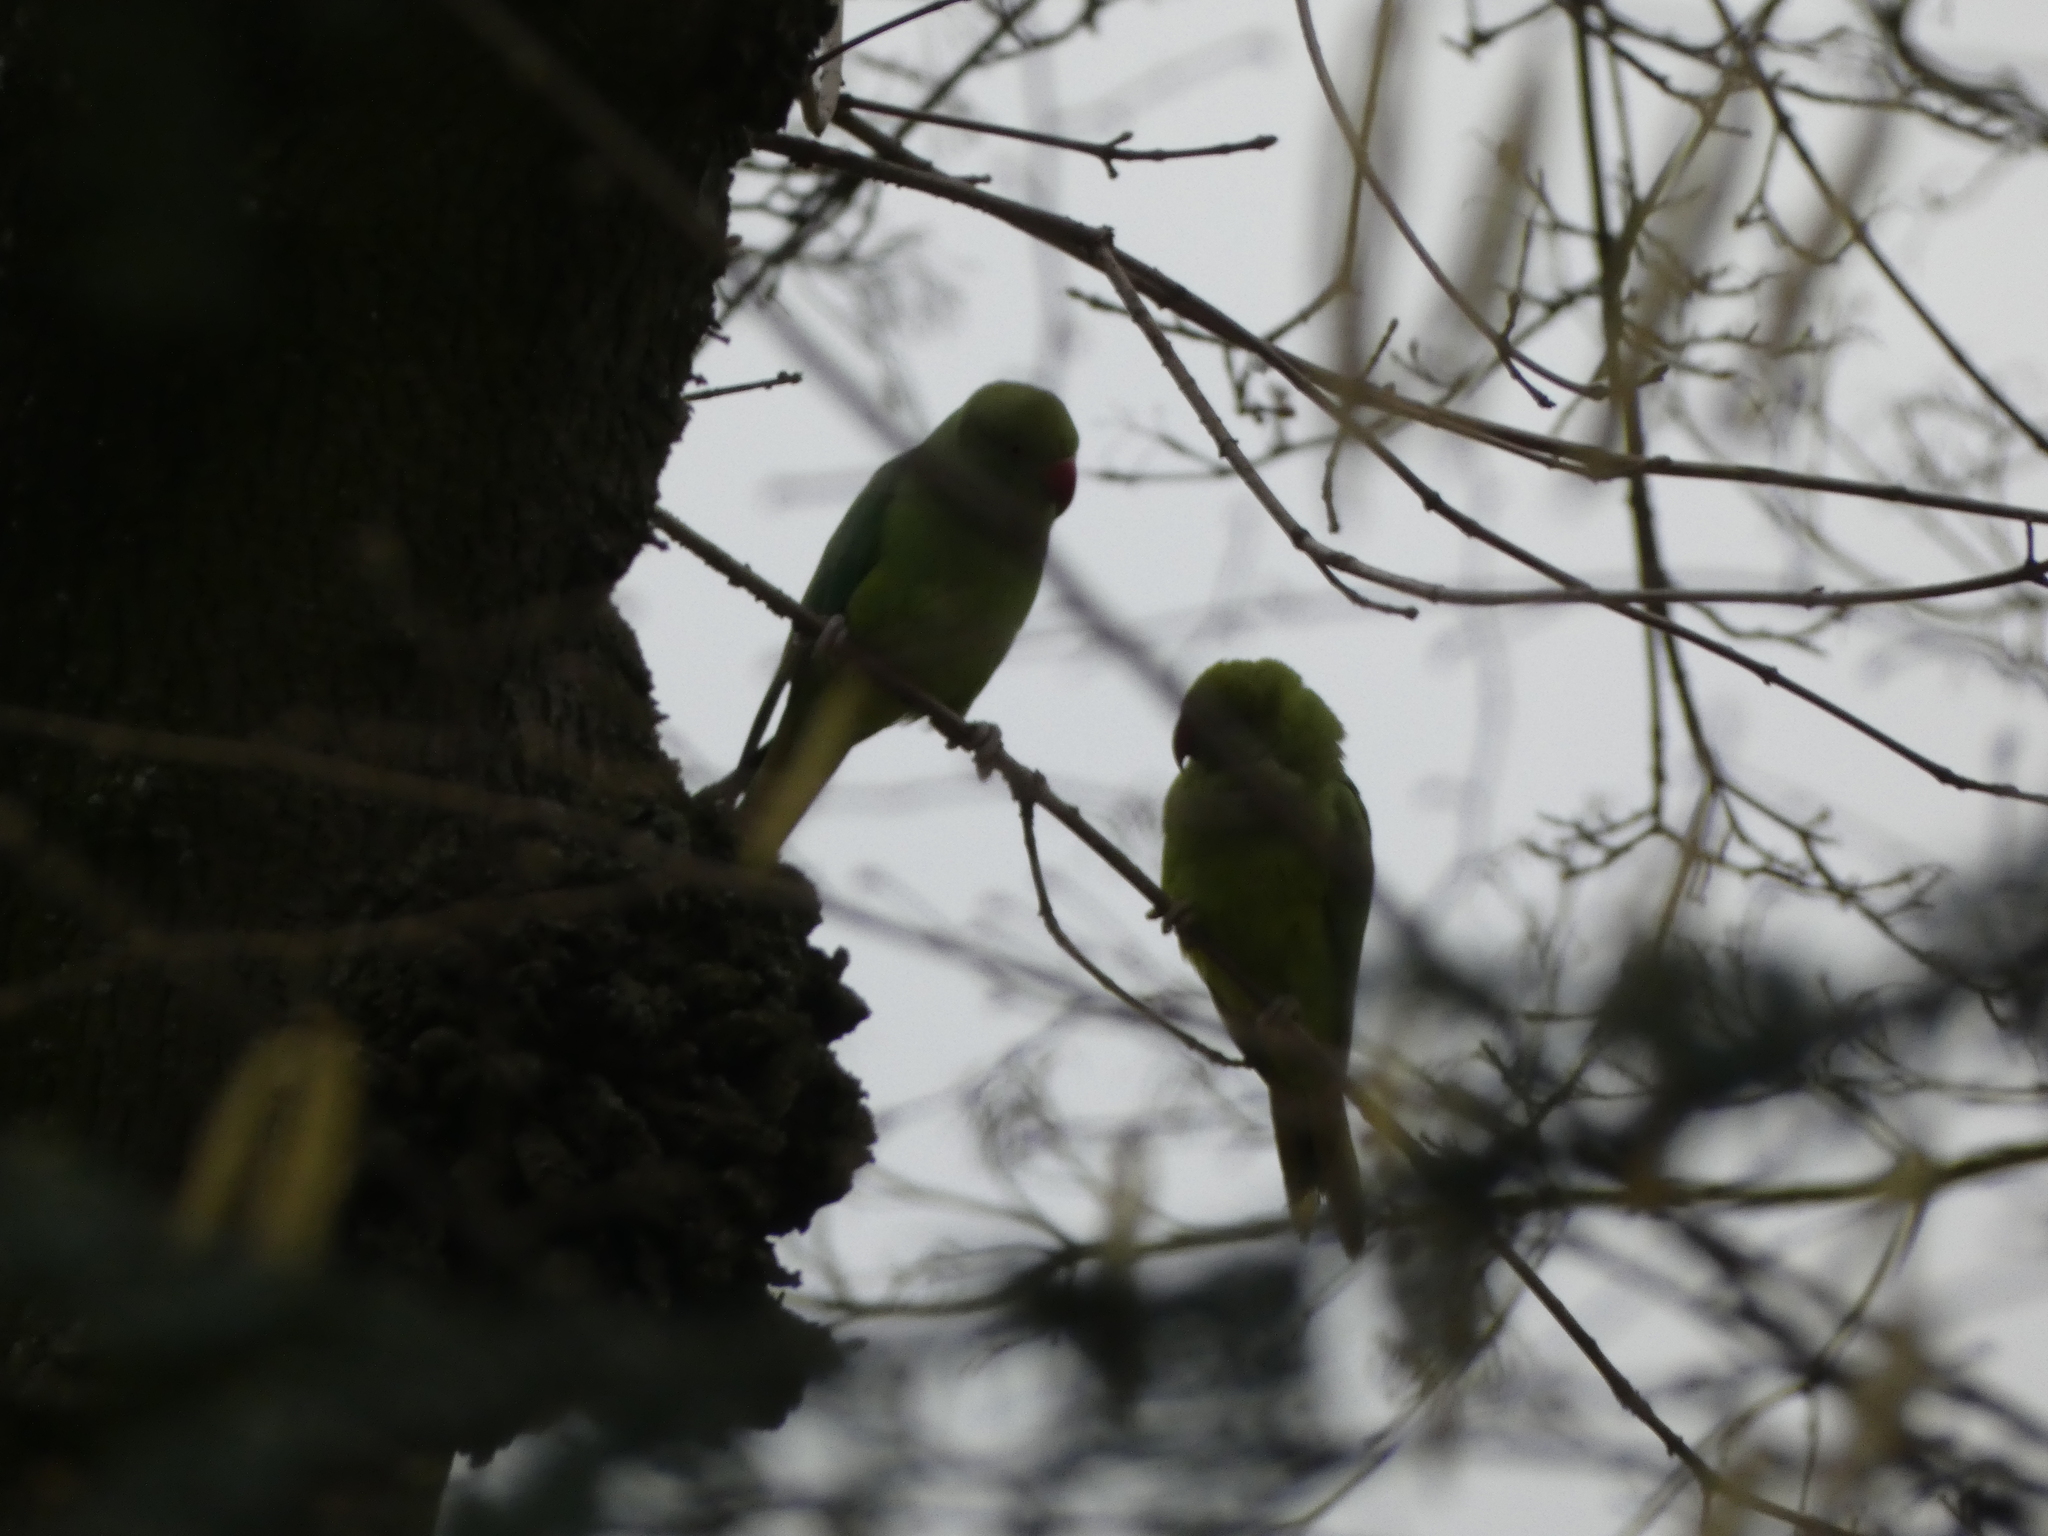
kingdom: Animalia
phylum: Chordata
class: Aves
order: Psittaciformes
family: Psittacidae
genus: Psittacula
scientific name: Psittacula krameri
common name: Rose-ringed parakeet
